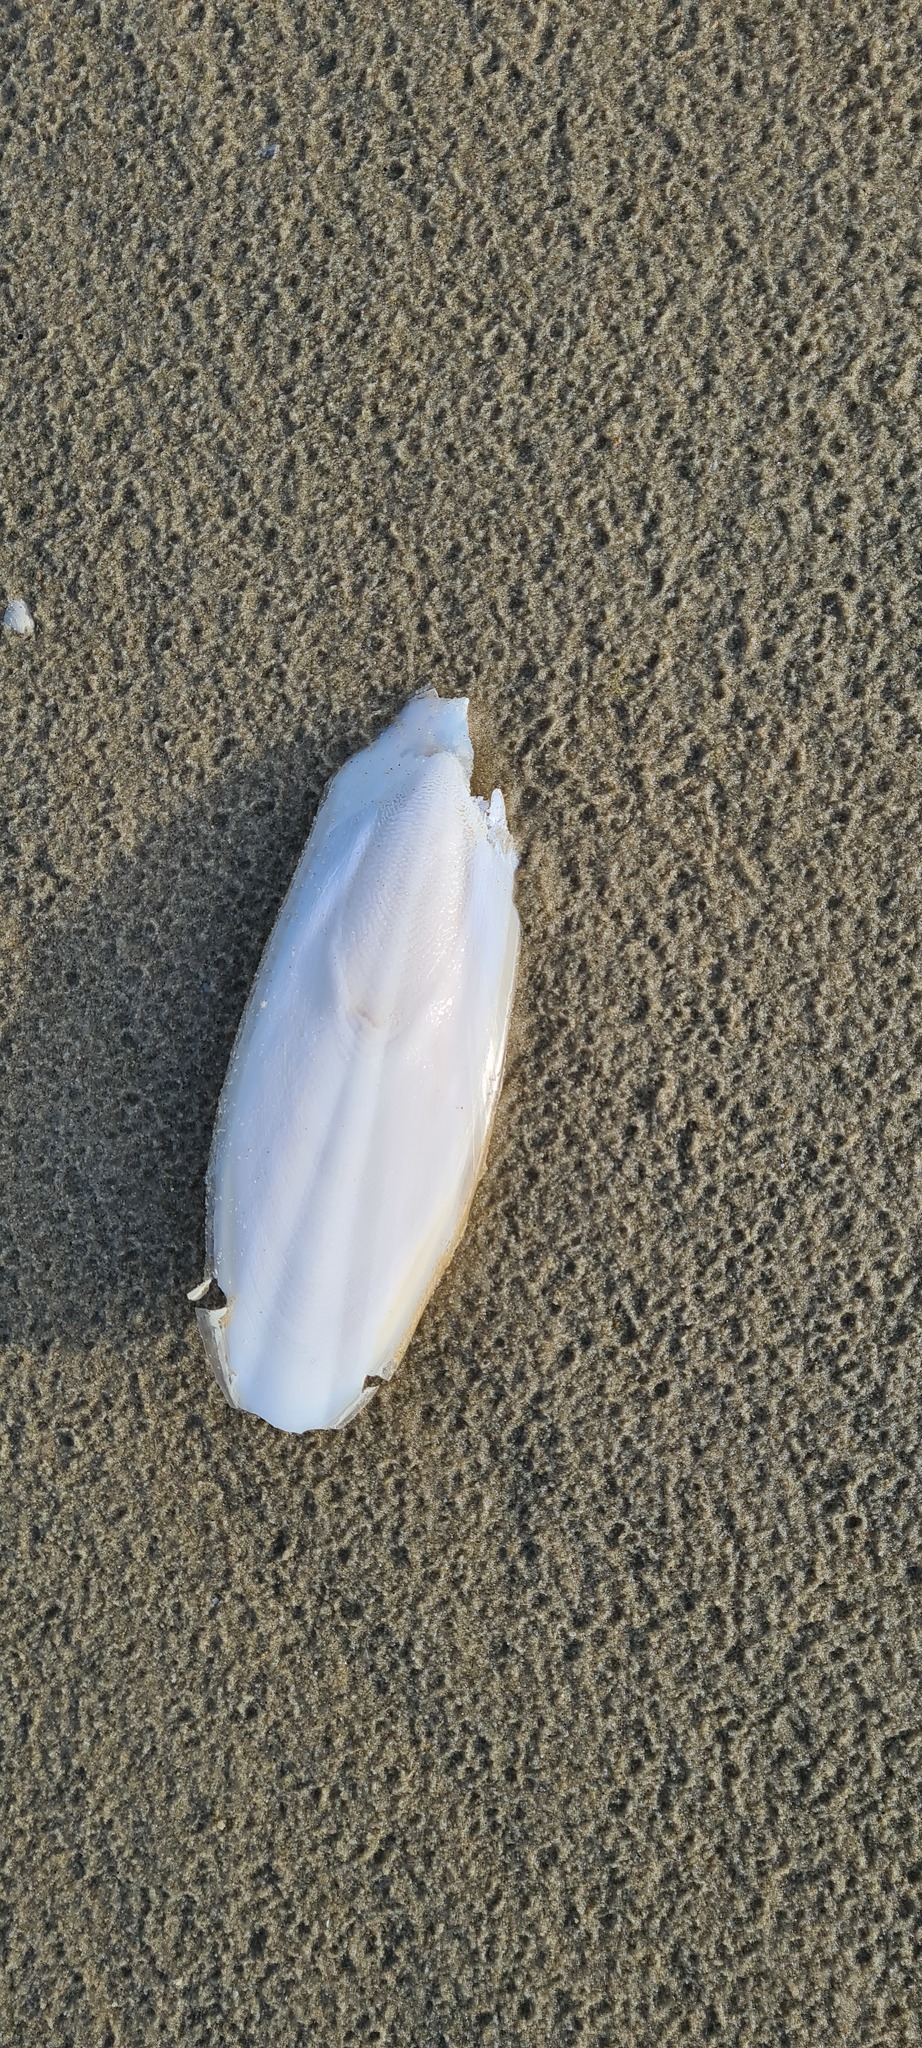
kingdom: Animalia
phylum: Mollusca
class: Cephalopoda
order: Sepiida
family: Sepiidae
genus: Sepia
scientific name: Sepia officinalis
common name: Common cuttlefish
